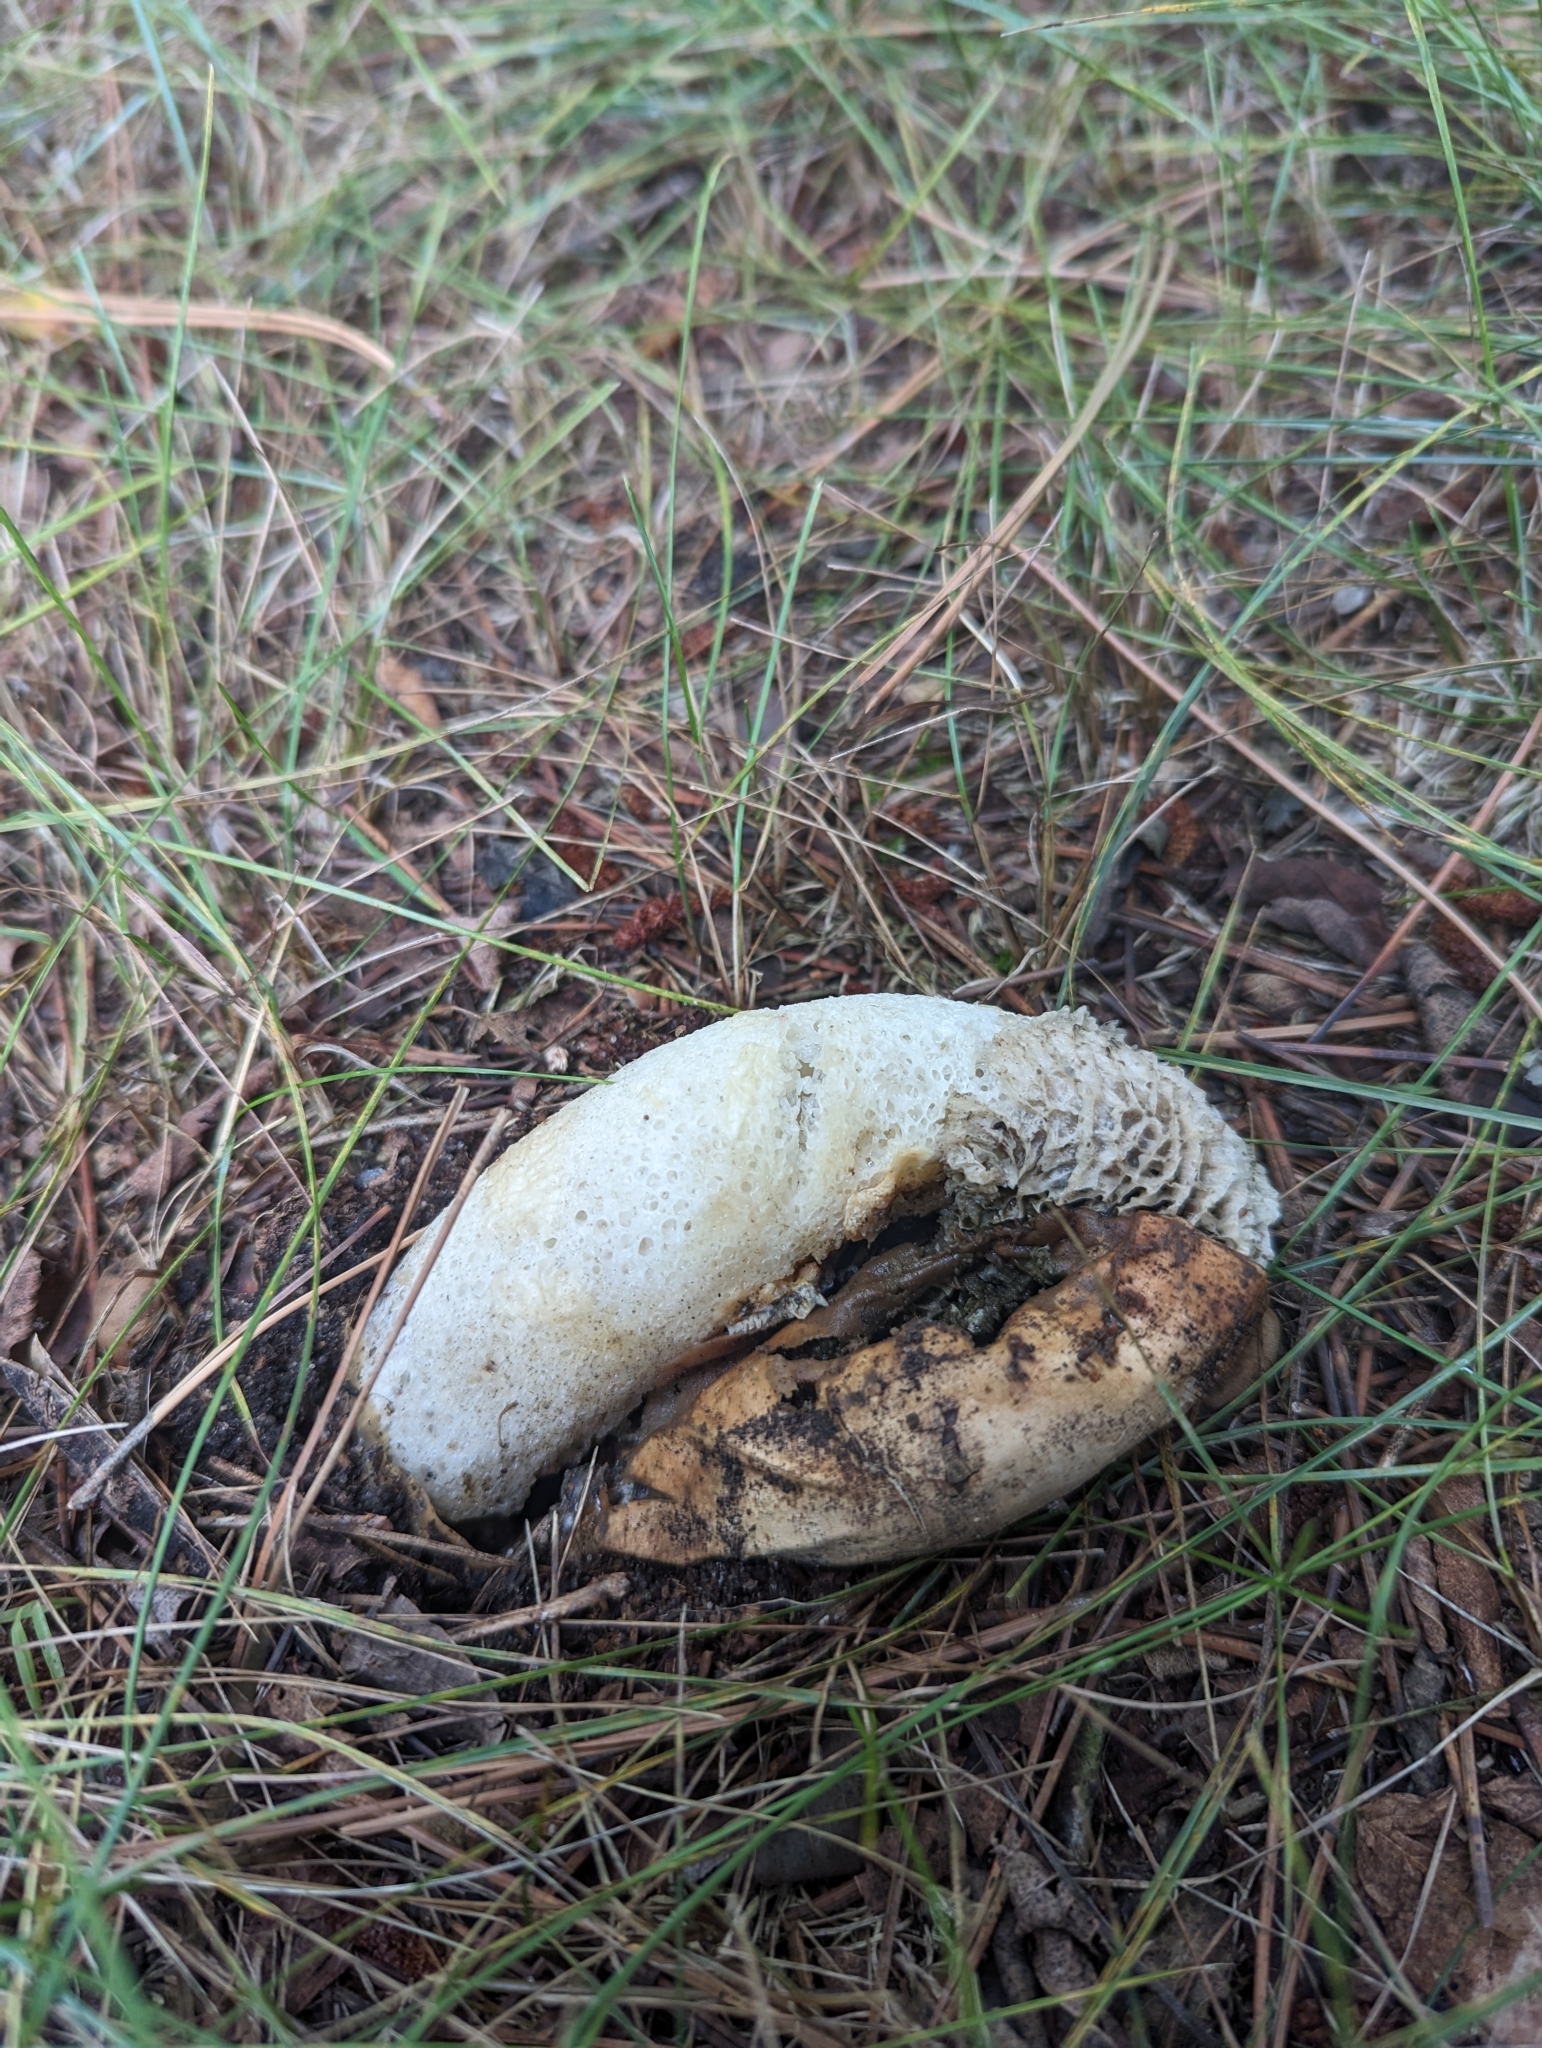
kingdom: Fungi
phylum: Basidiomycota
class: Agaricomycetes
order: Phallales
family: Phallaceae
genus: Phallus
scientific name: Phallus indusiatus
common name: Bridal veil stinkhorn
